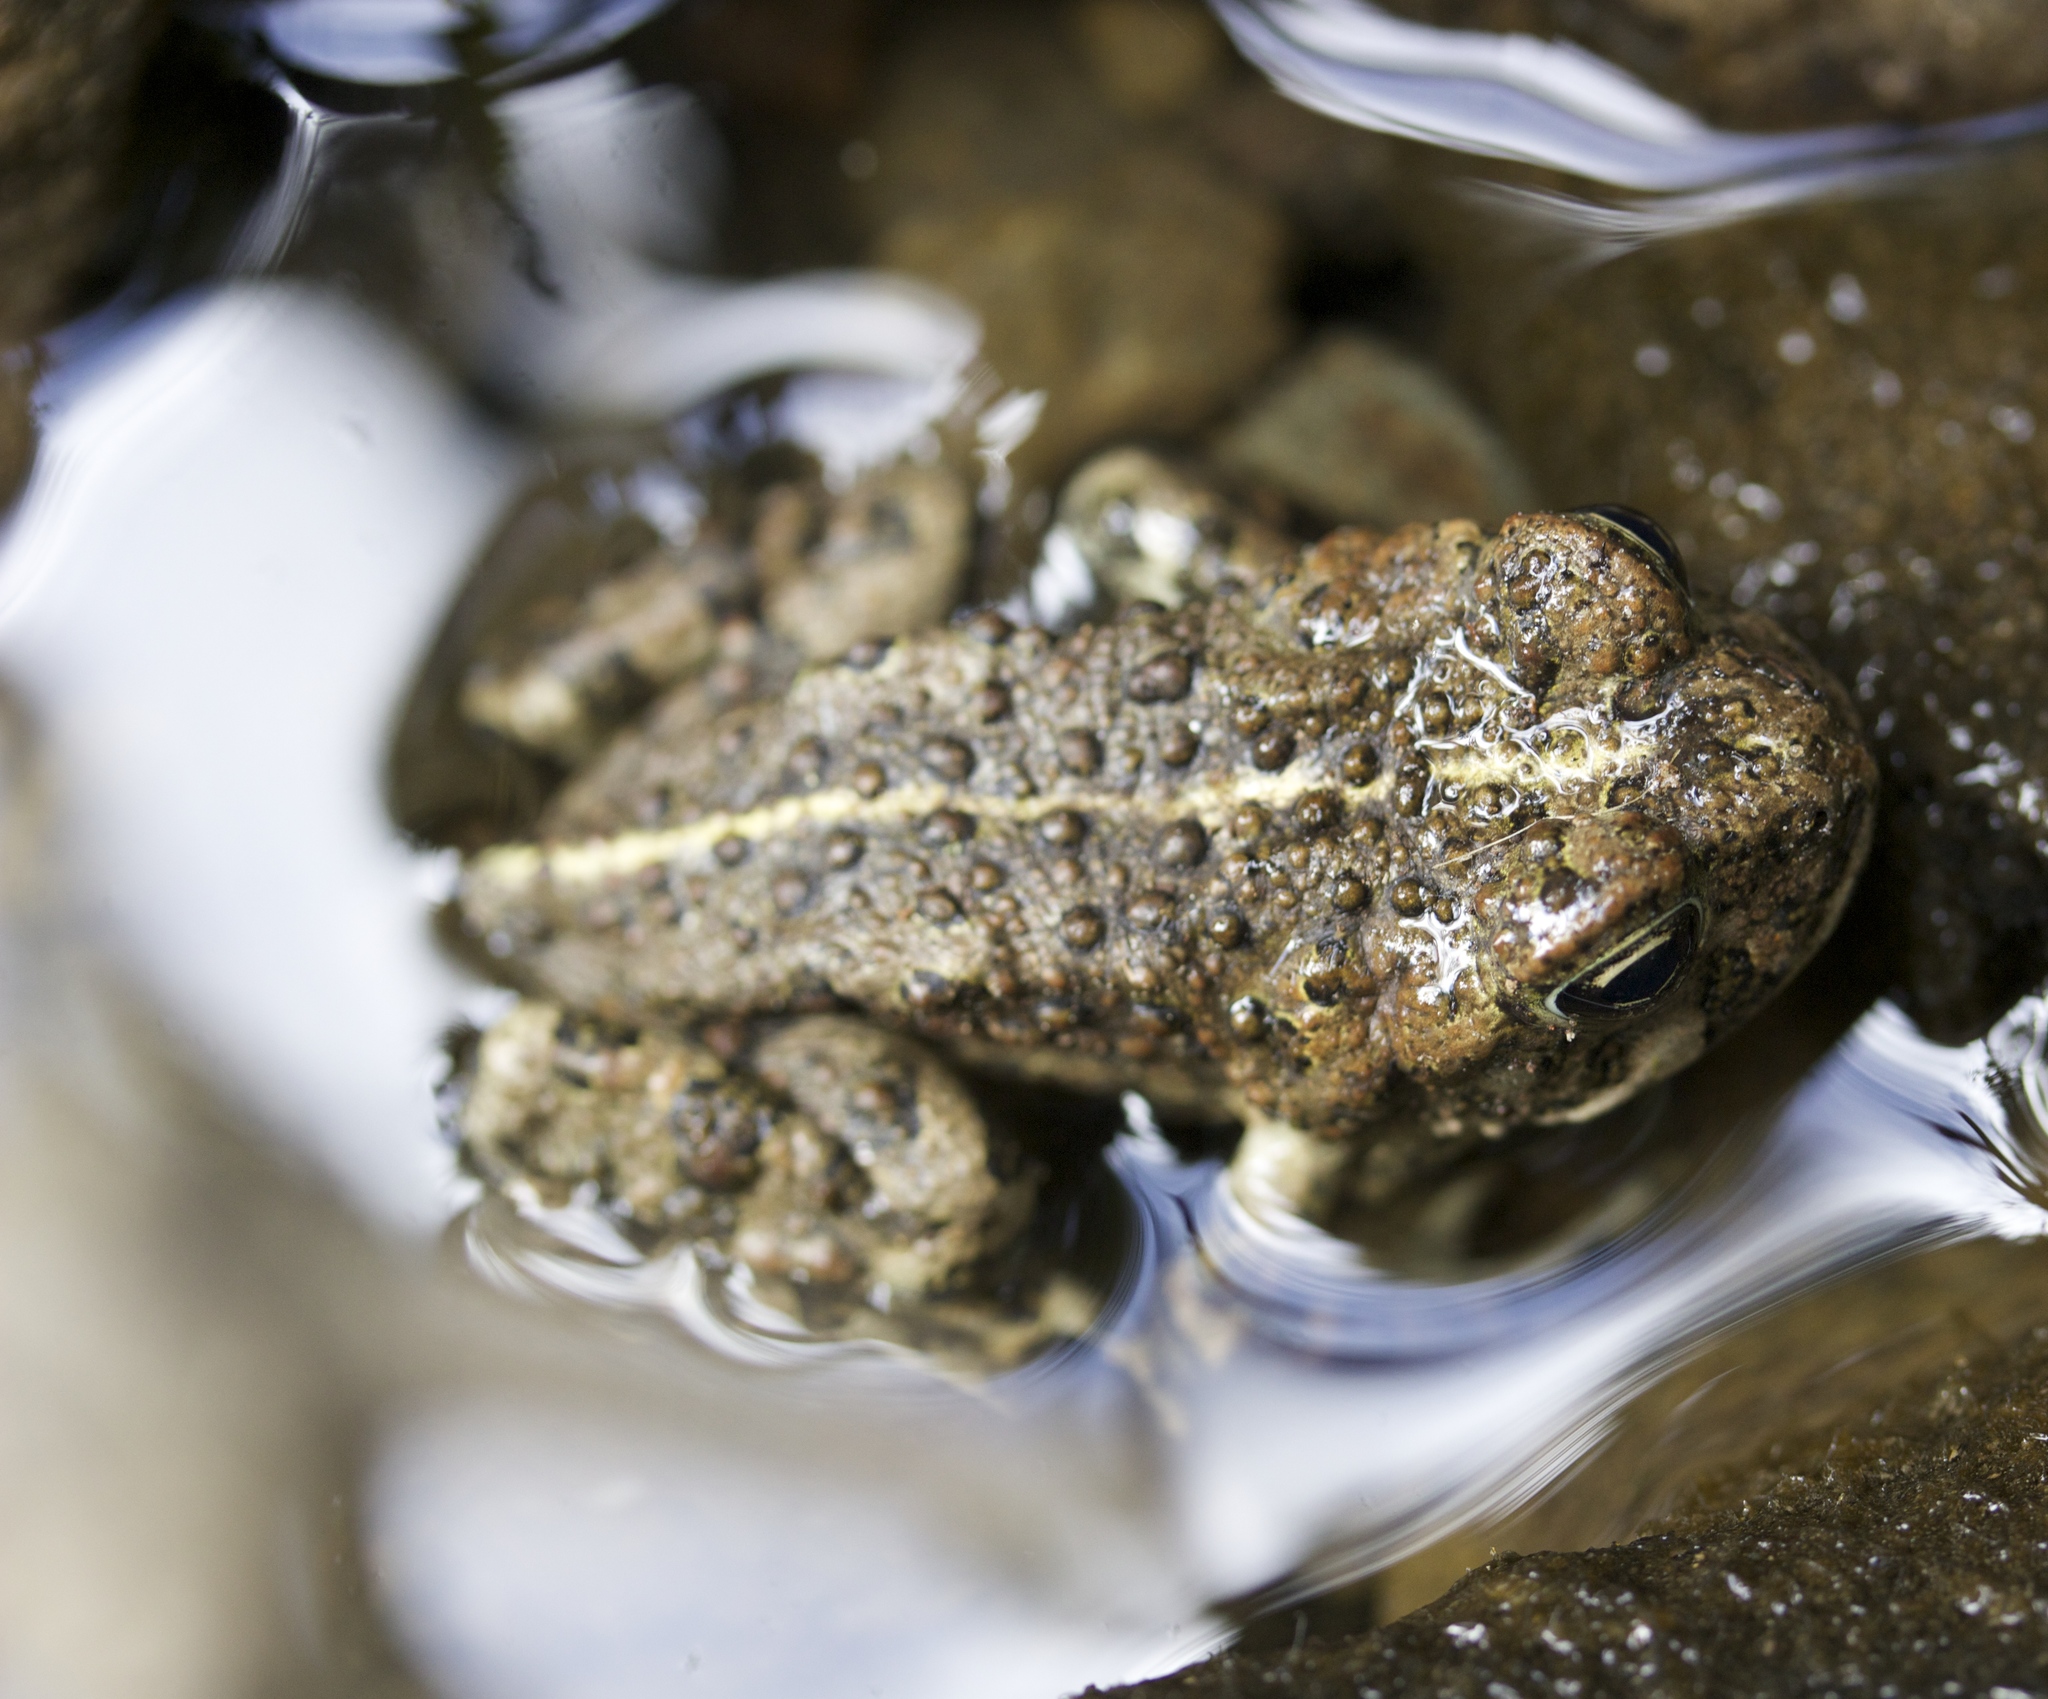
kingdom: Animalia
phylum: Chordata
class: Amphibia
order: Anura
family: Bufonidae
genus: Anaxyrus
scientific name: Anaxyrus boreas
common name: Western toad
